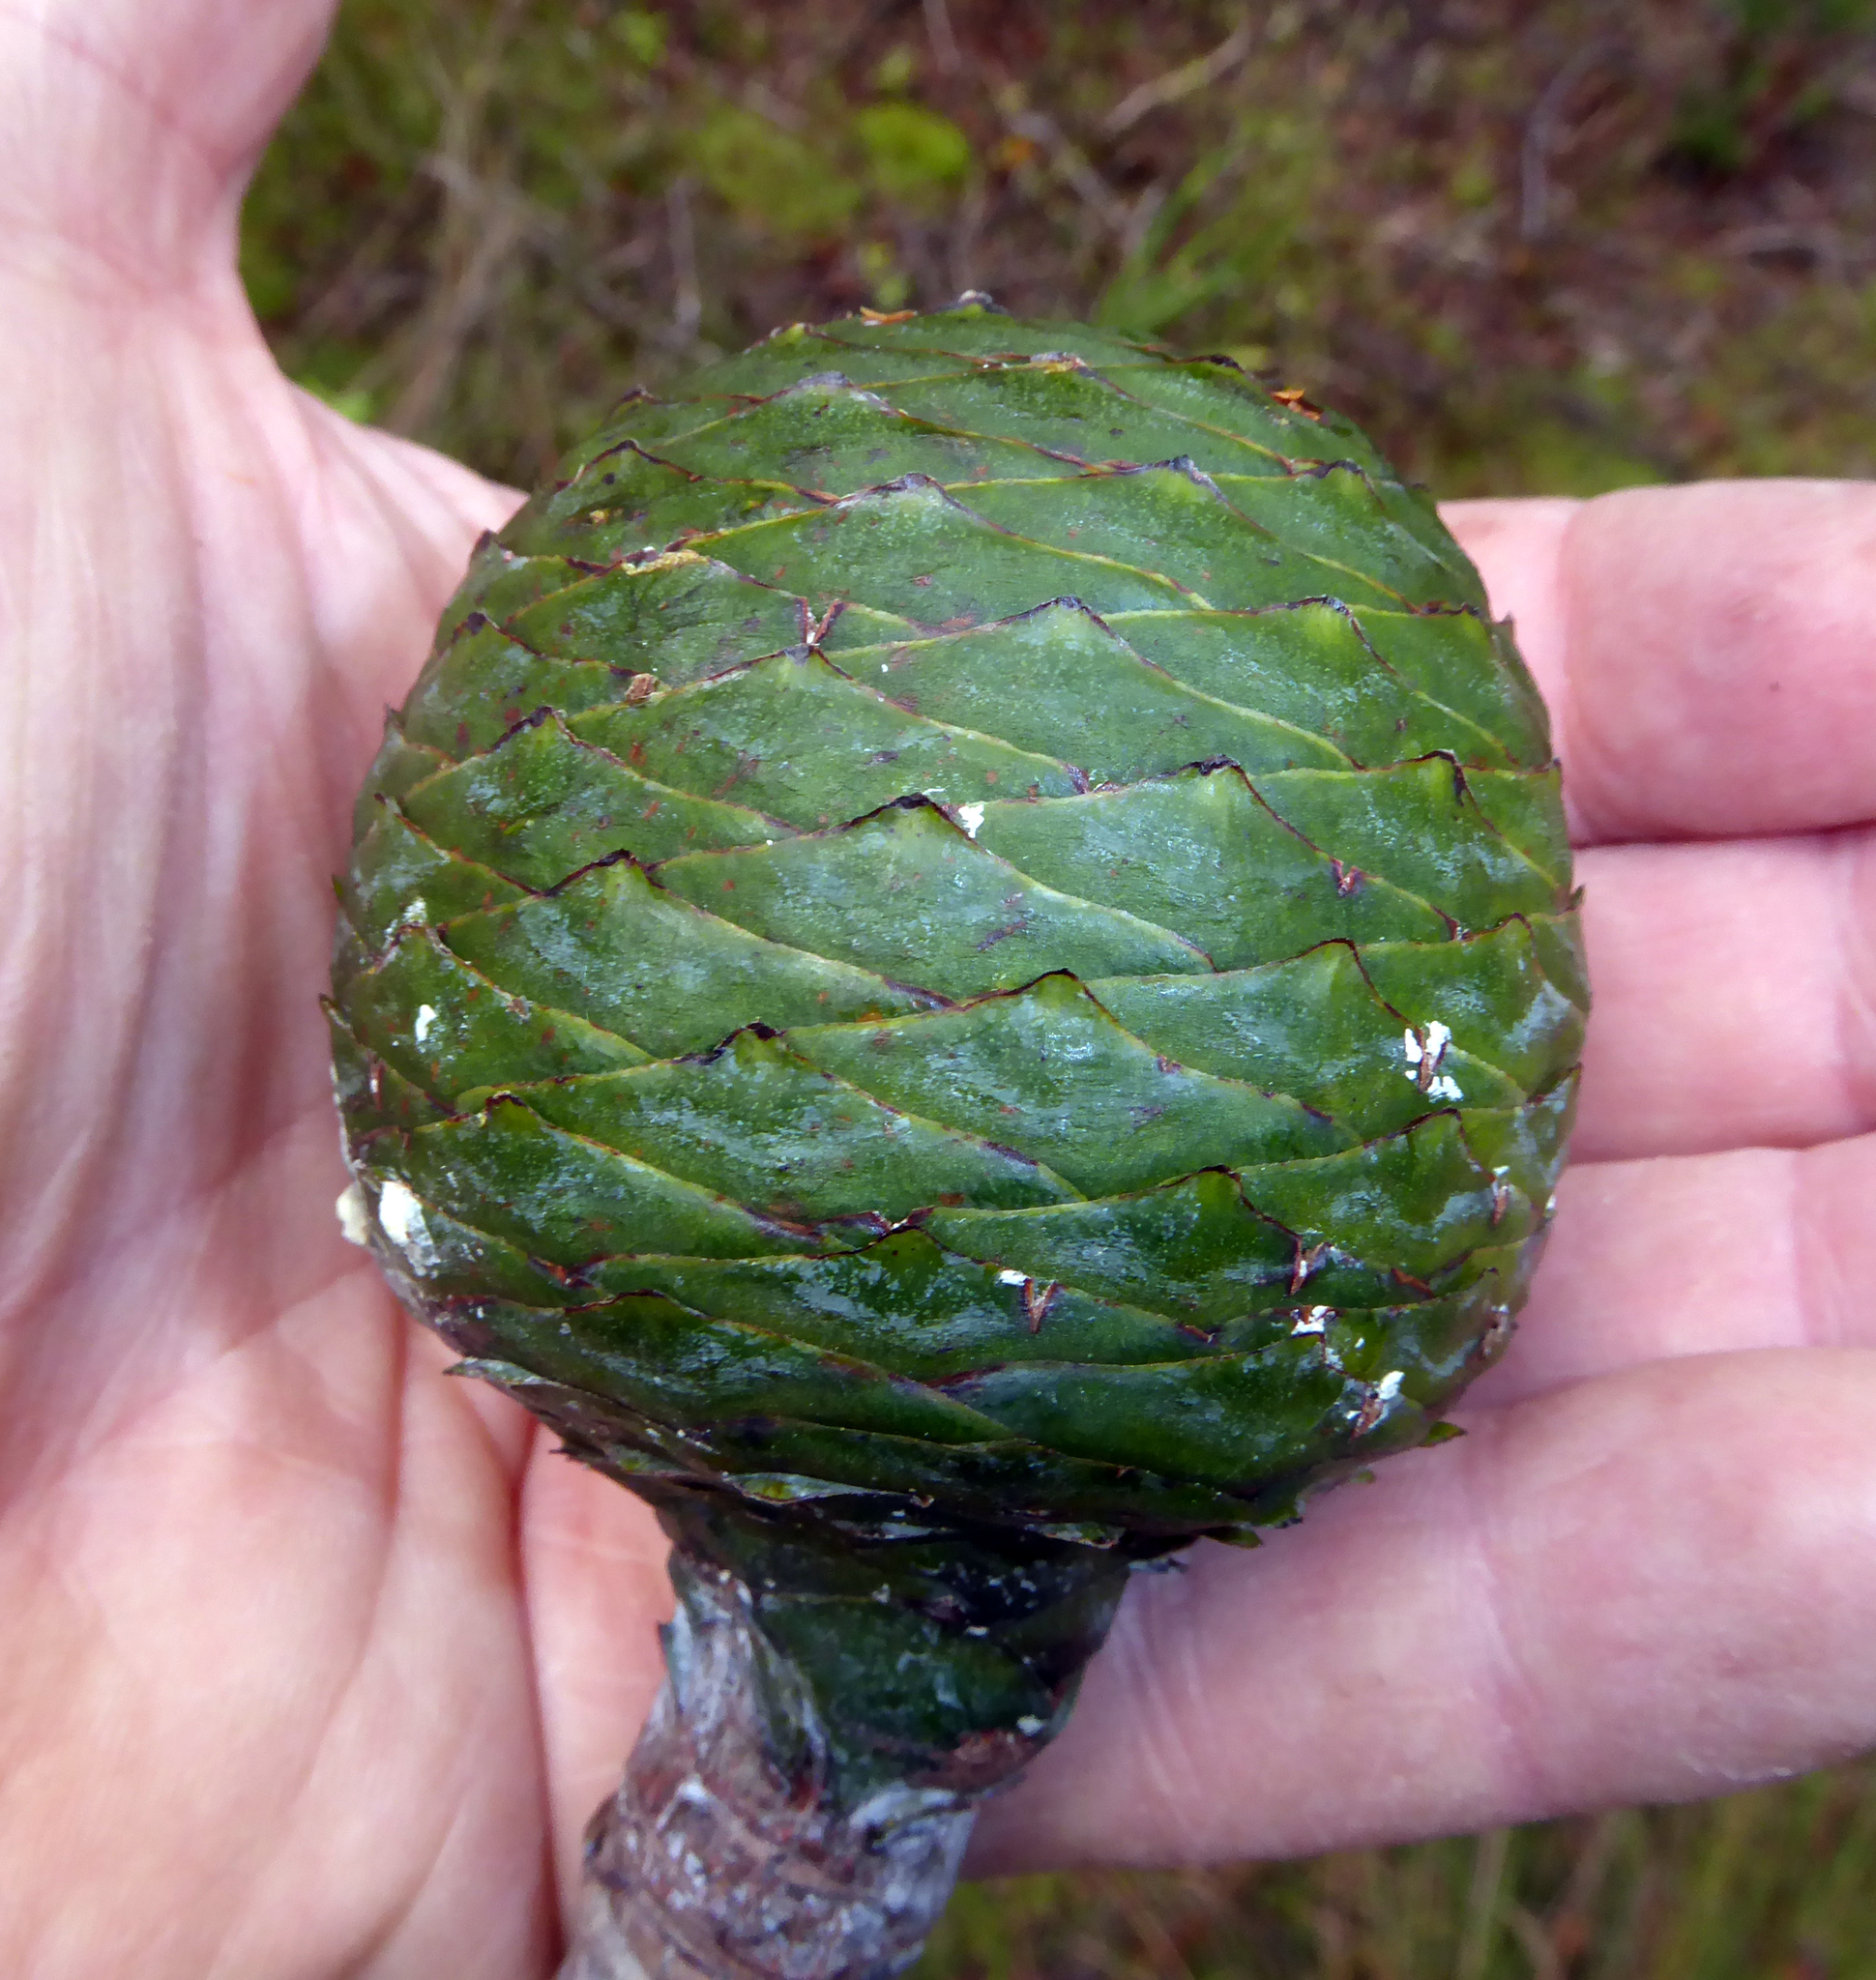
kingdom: Plantae
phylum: Tracheophyta
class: Pinopsida
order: Pinales
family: Araucariaceae
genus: Agathis
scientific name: Agathis australis
